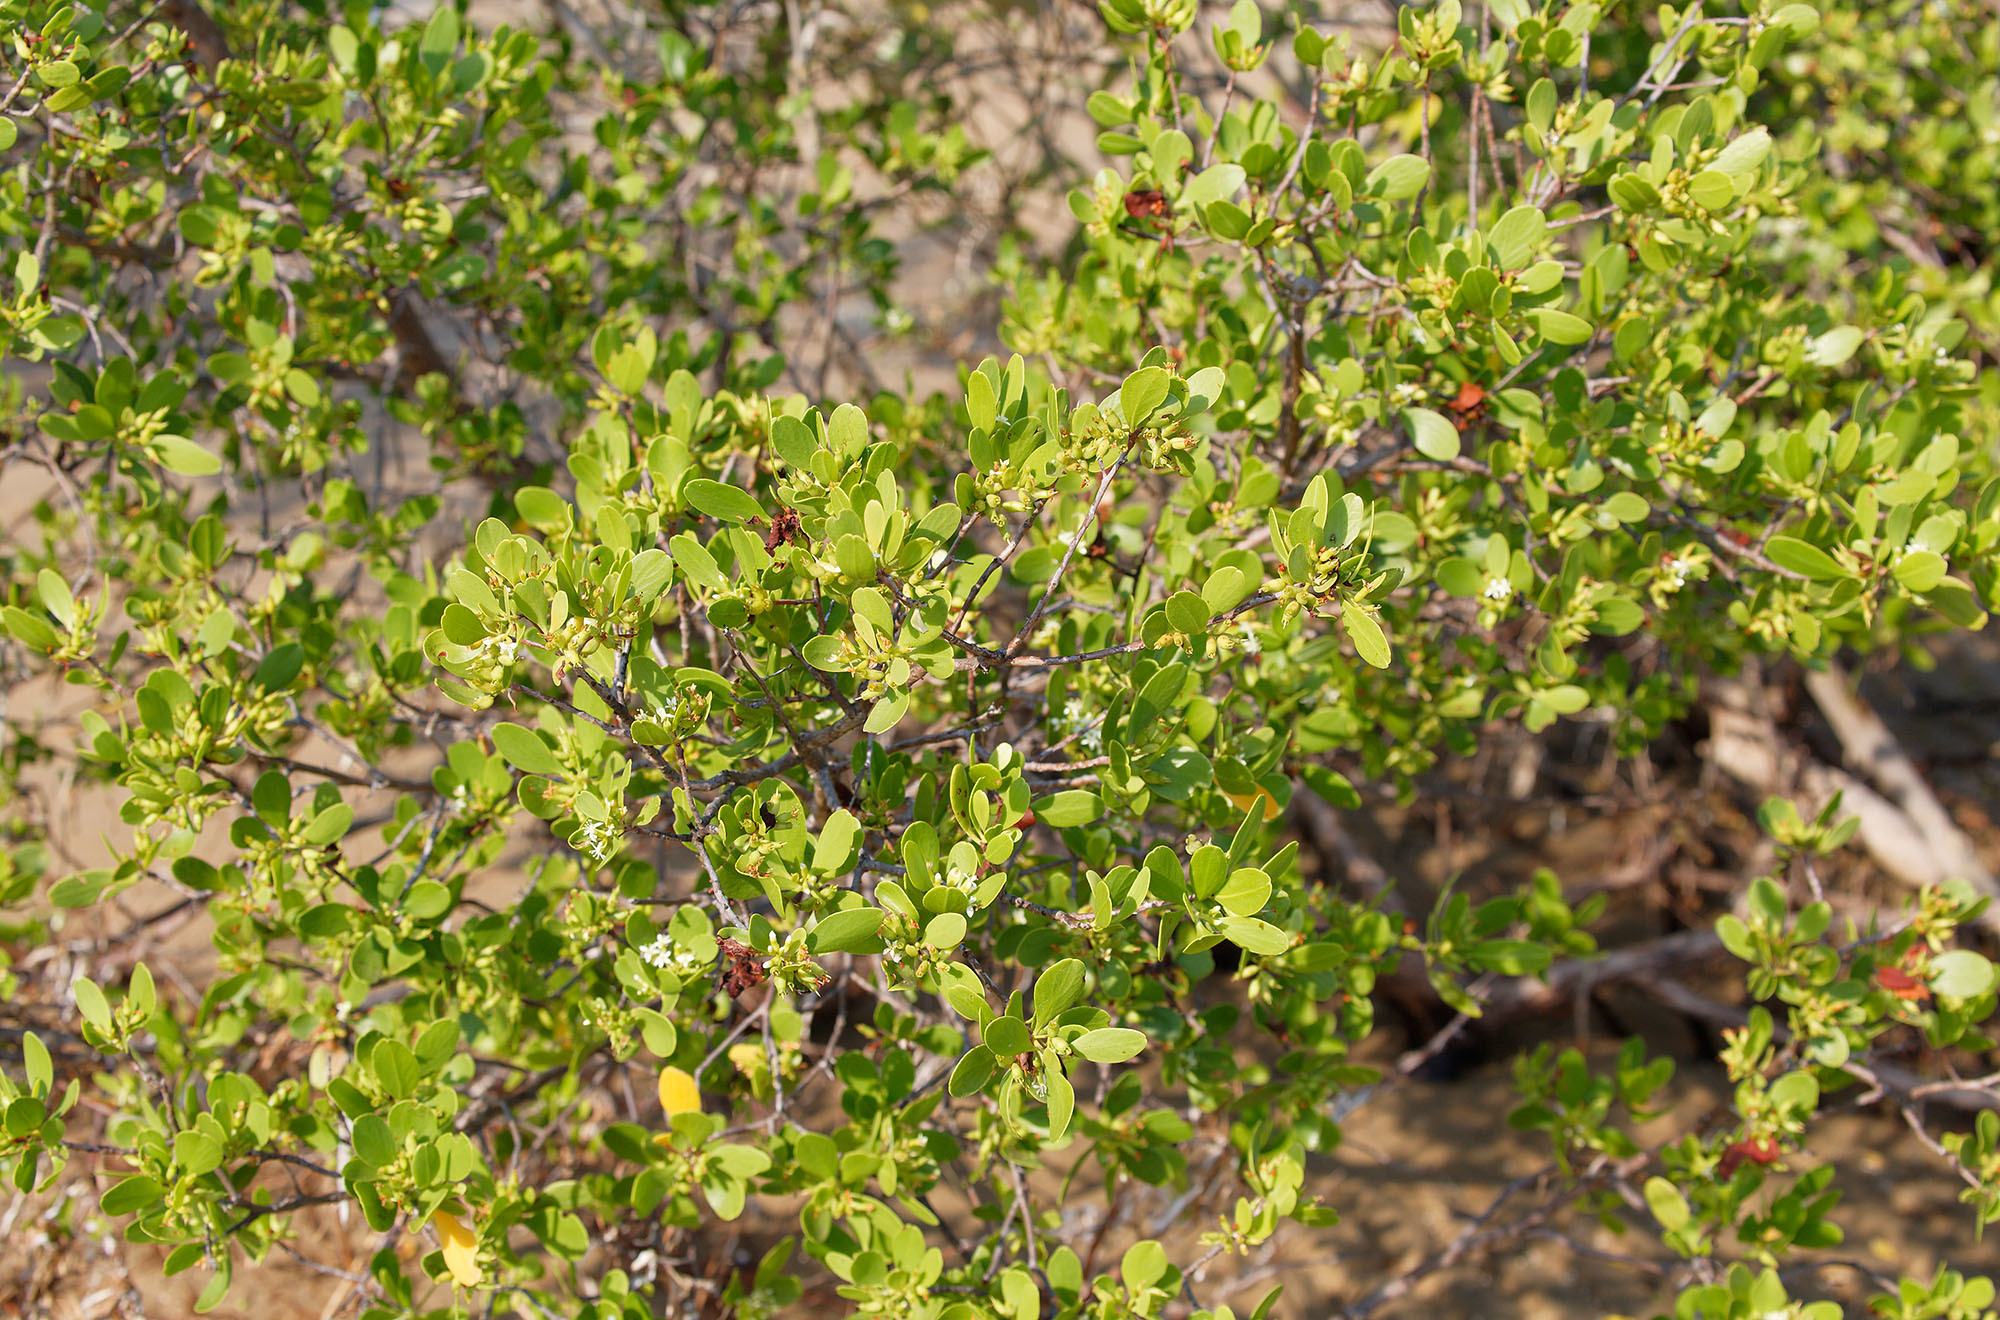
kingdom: Plantae
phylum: Tracheophyta
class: Magnoliopsida
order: Myrtales
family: Combretaceae
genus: Lumnitzera
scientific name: Lumnitzera racemosa
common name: White-flowered black mangrove
